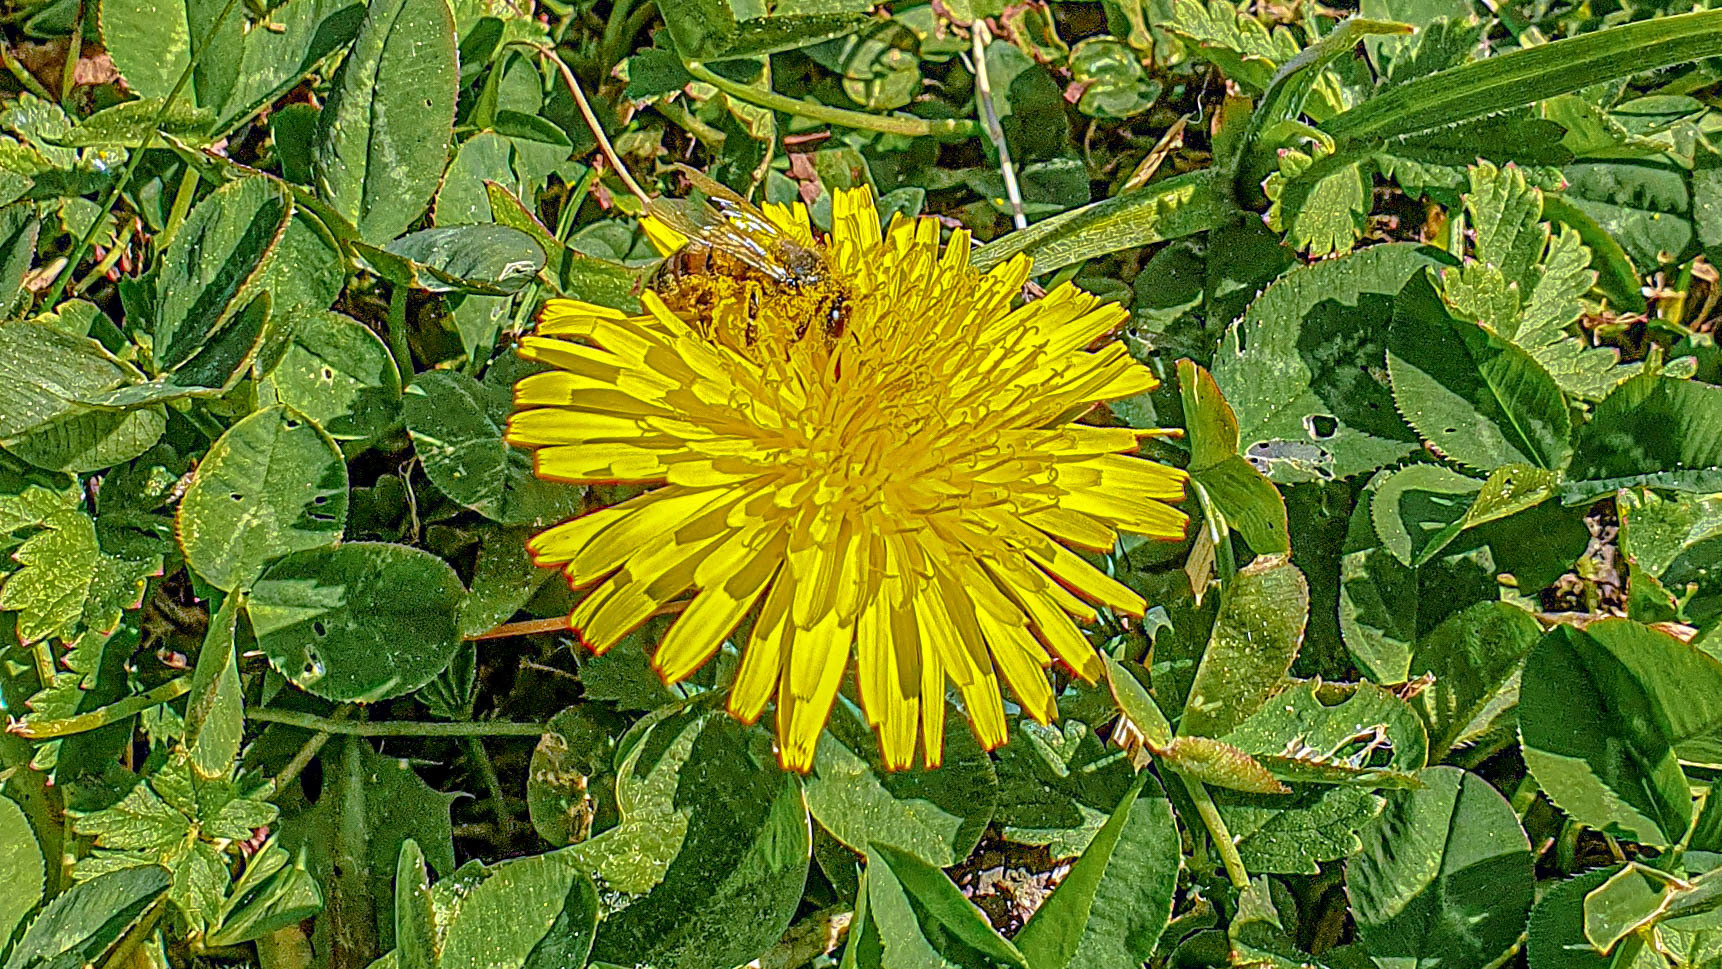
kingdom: Animalia
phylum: Arthropoda
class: Insecta
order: Hymenoptera
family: Apidae
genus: Apis
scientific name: Apis mellifera
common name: Honey bee
